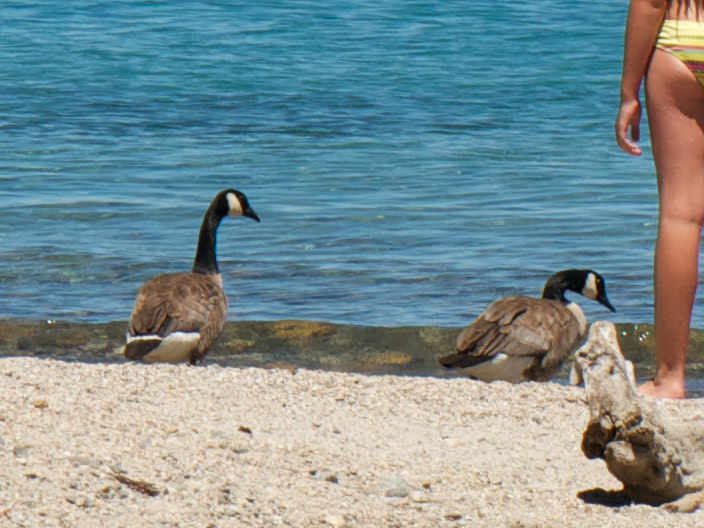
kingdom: Animalia
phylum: Chordata
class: Aves
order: Anseriformes
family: Anatidae
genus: Branta
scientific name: Branta canadensis
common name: Canada goose
